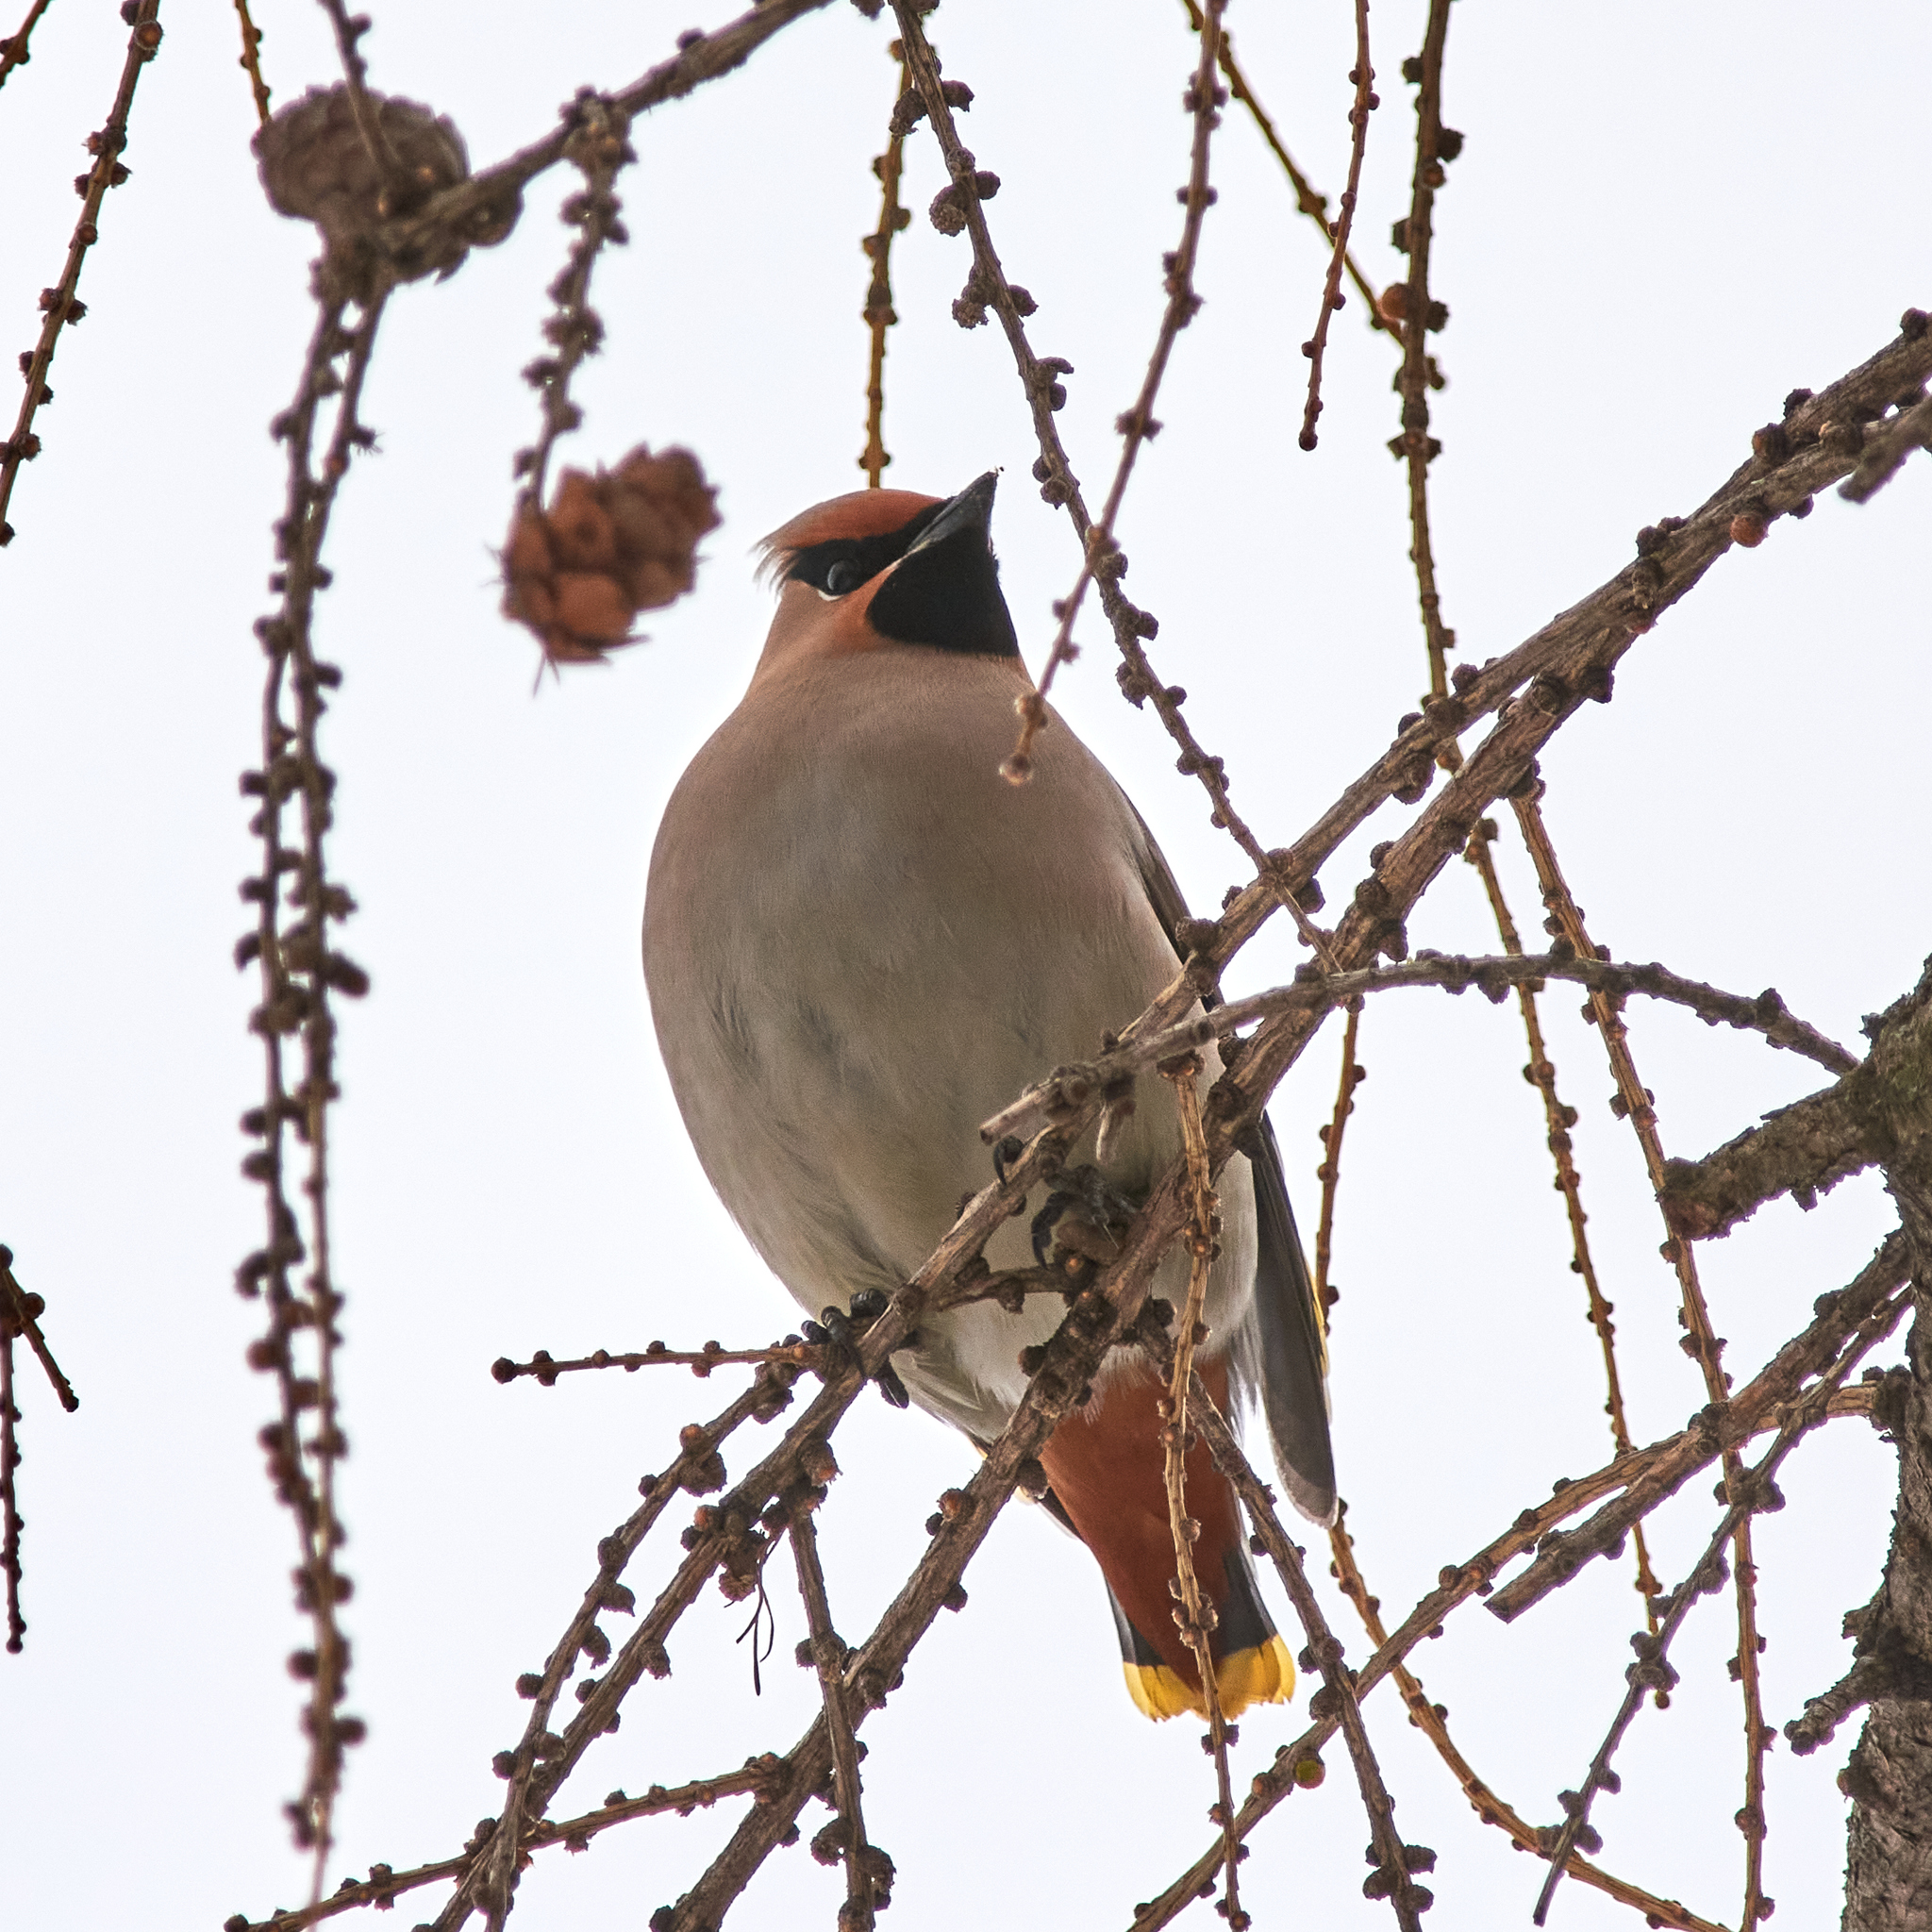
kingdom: Animalia
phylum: Chordata
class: Aves
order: Passeriformes
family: Bombycillidae
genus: Bombycilla
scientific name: Bombycilla garrulus
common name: Bohemian waxwing
